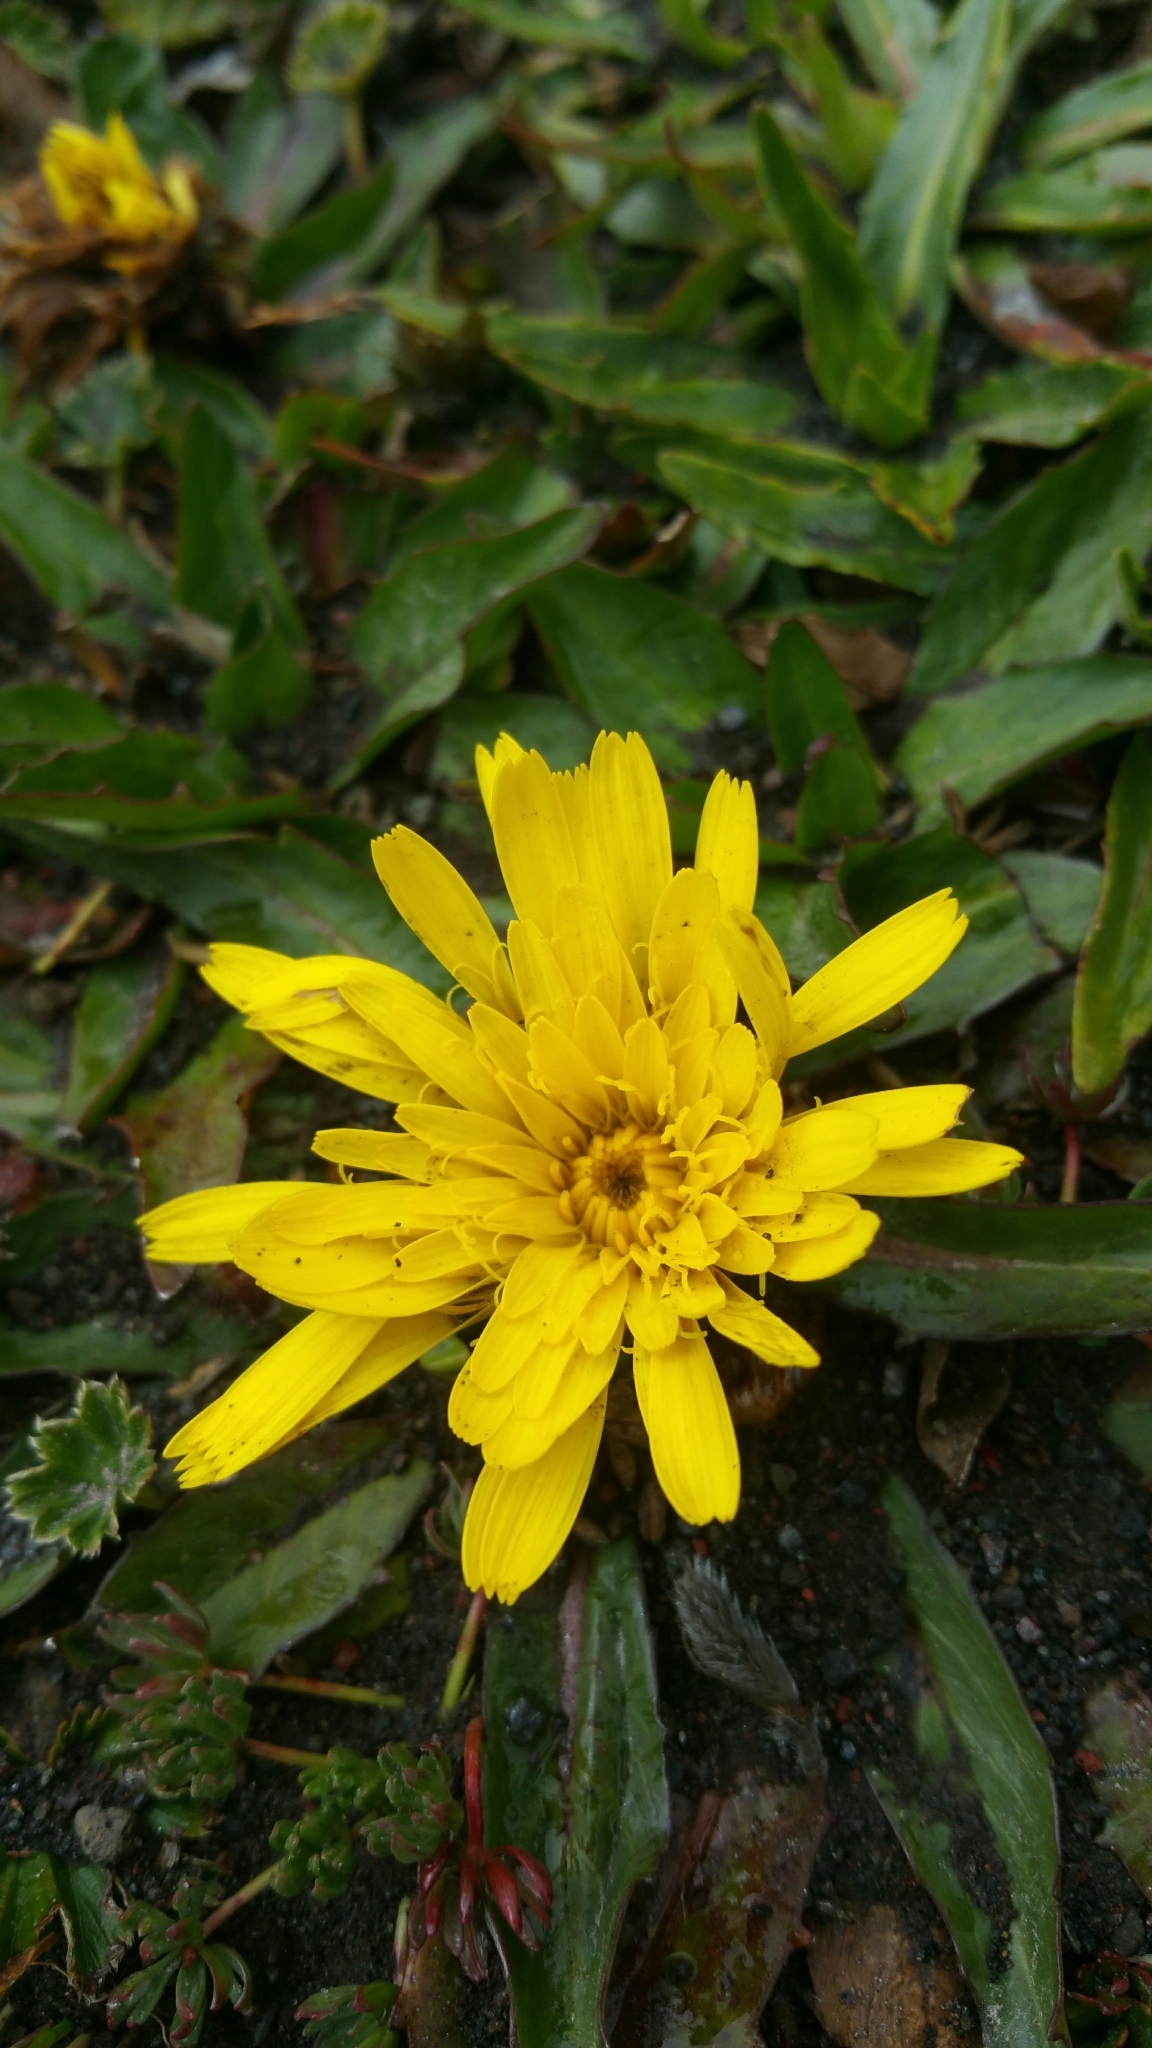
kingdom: Plantae
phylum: Tracheophyta
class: Magnoliopsida
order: Asterales
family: Asteraceae
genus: Hypochaeris
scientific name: Hypochaeris sessiliflora
